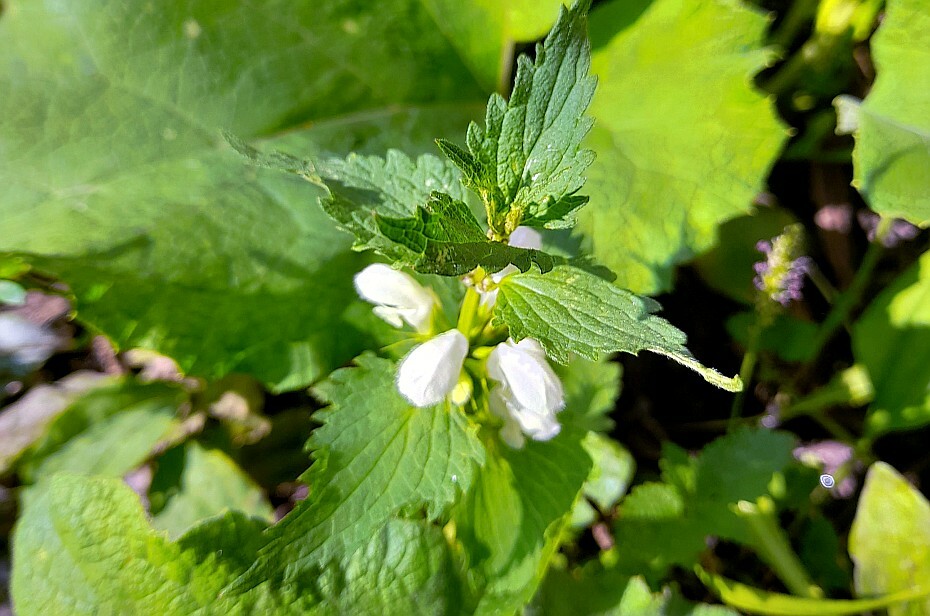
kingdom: Plantae
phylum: Tracheophyta
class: Magnoliopsida
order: Lamiales
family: Lamiaceae
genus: Lamium
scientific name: Lamium album
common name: White dead-nettle
